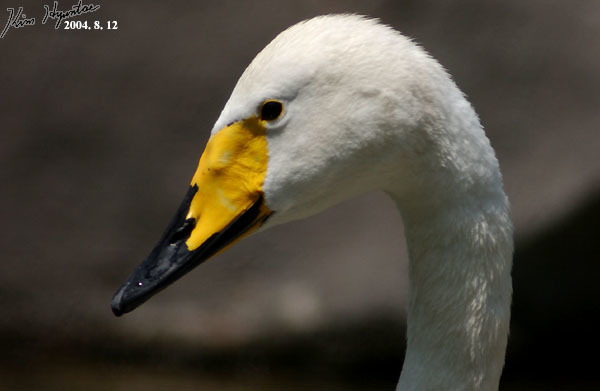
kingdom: Animalia
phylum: Chordata
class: Aves
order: Anseriformes
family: Anatidae
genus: Cygnus
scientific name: Cygnus cygnus
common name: Whooper swan
